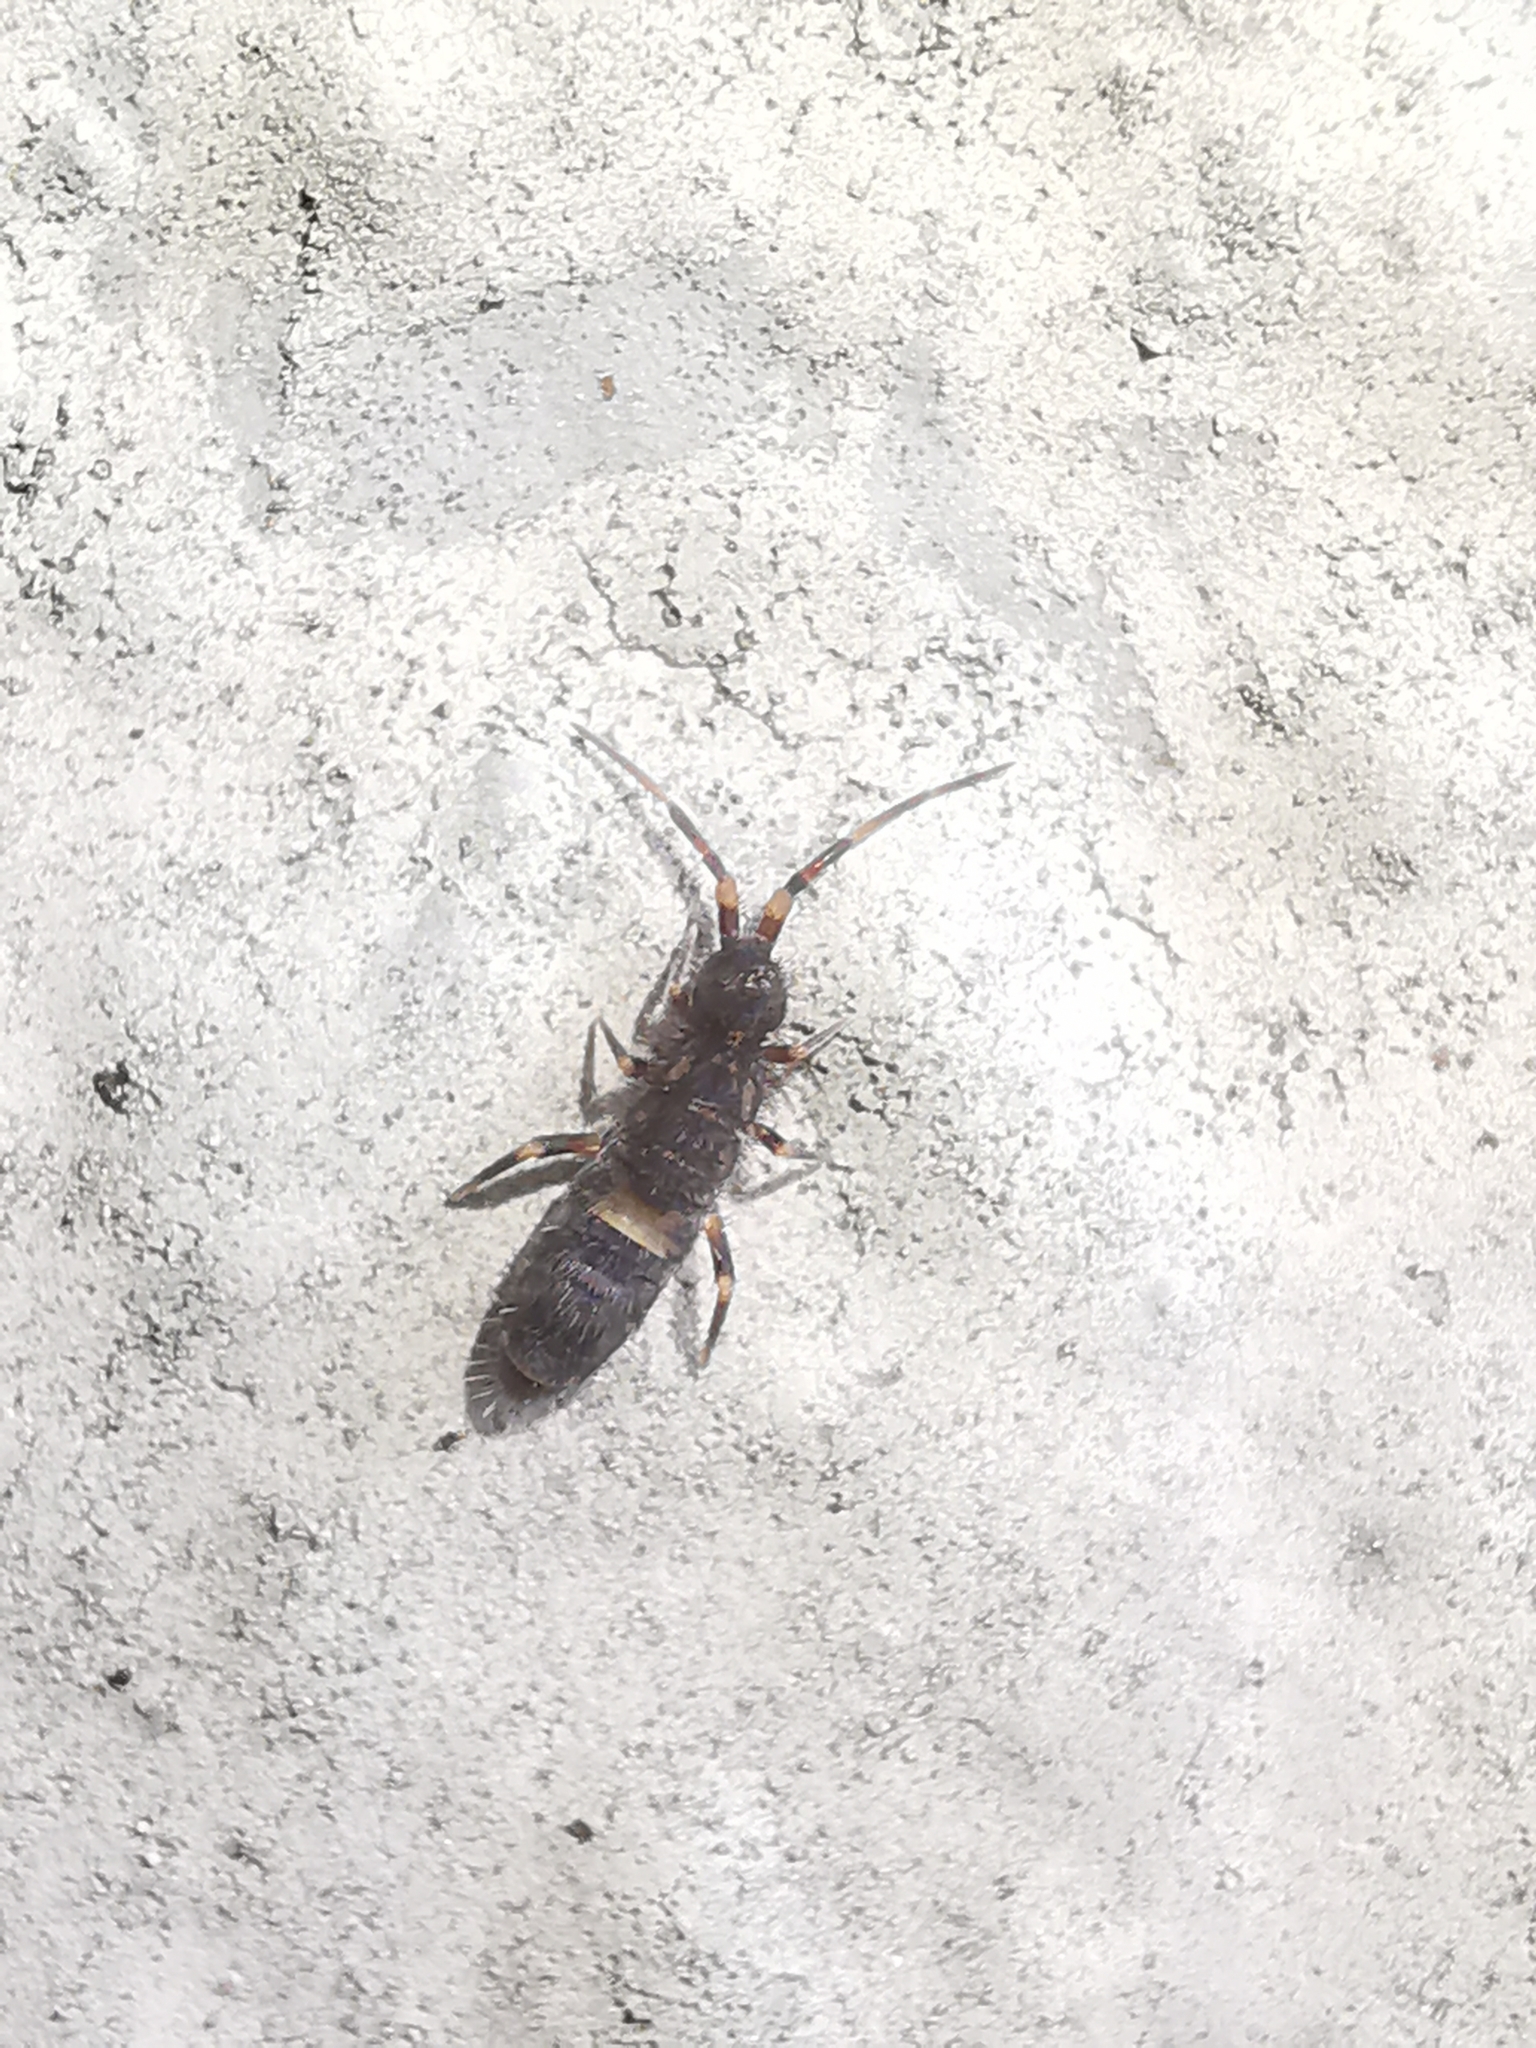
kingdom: Animalia
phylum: Arthropoda
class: Collembola
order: Entomobryomorpha
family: Orchesellidae
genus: Orchesella
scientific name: Orchesella cincta
